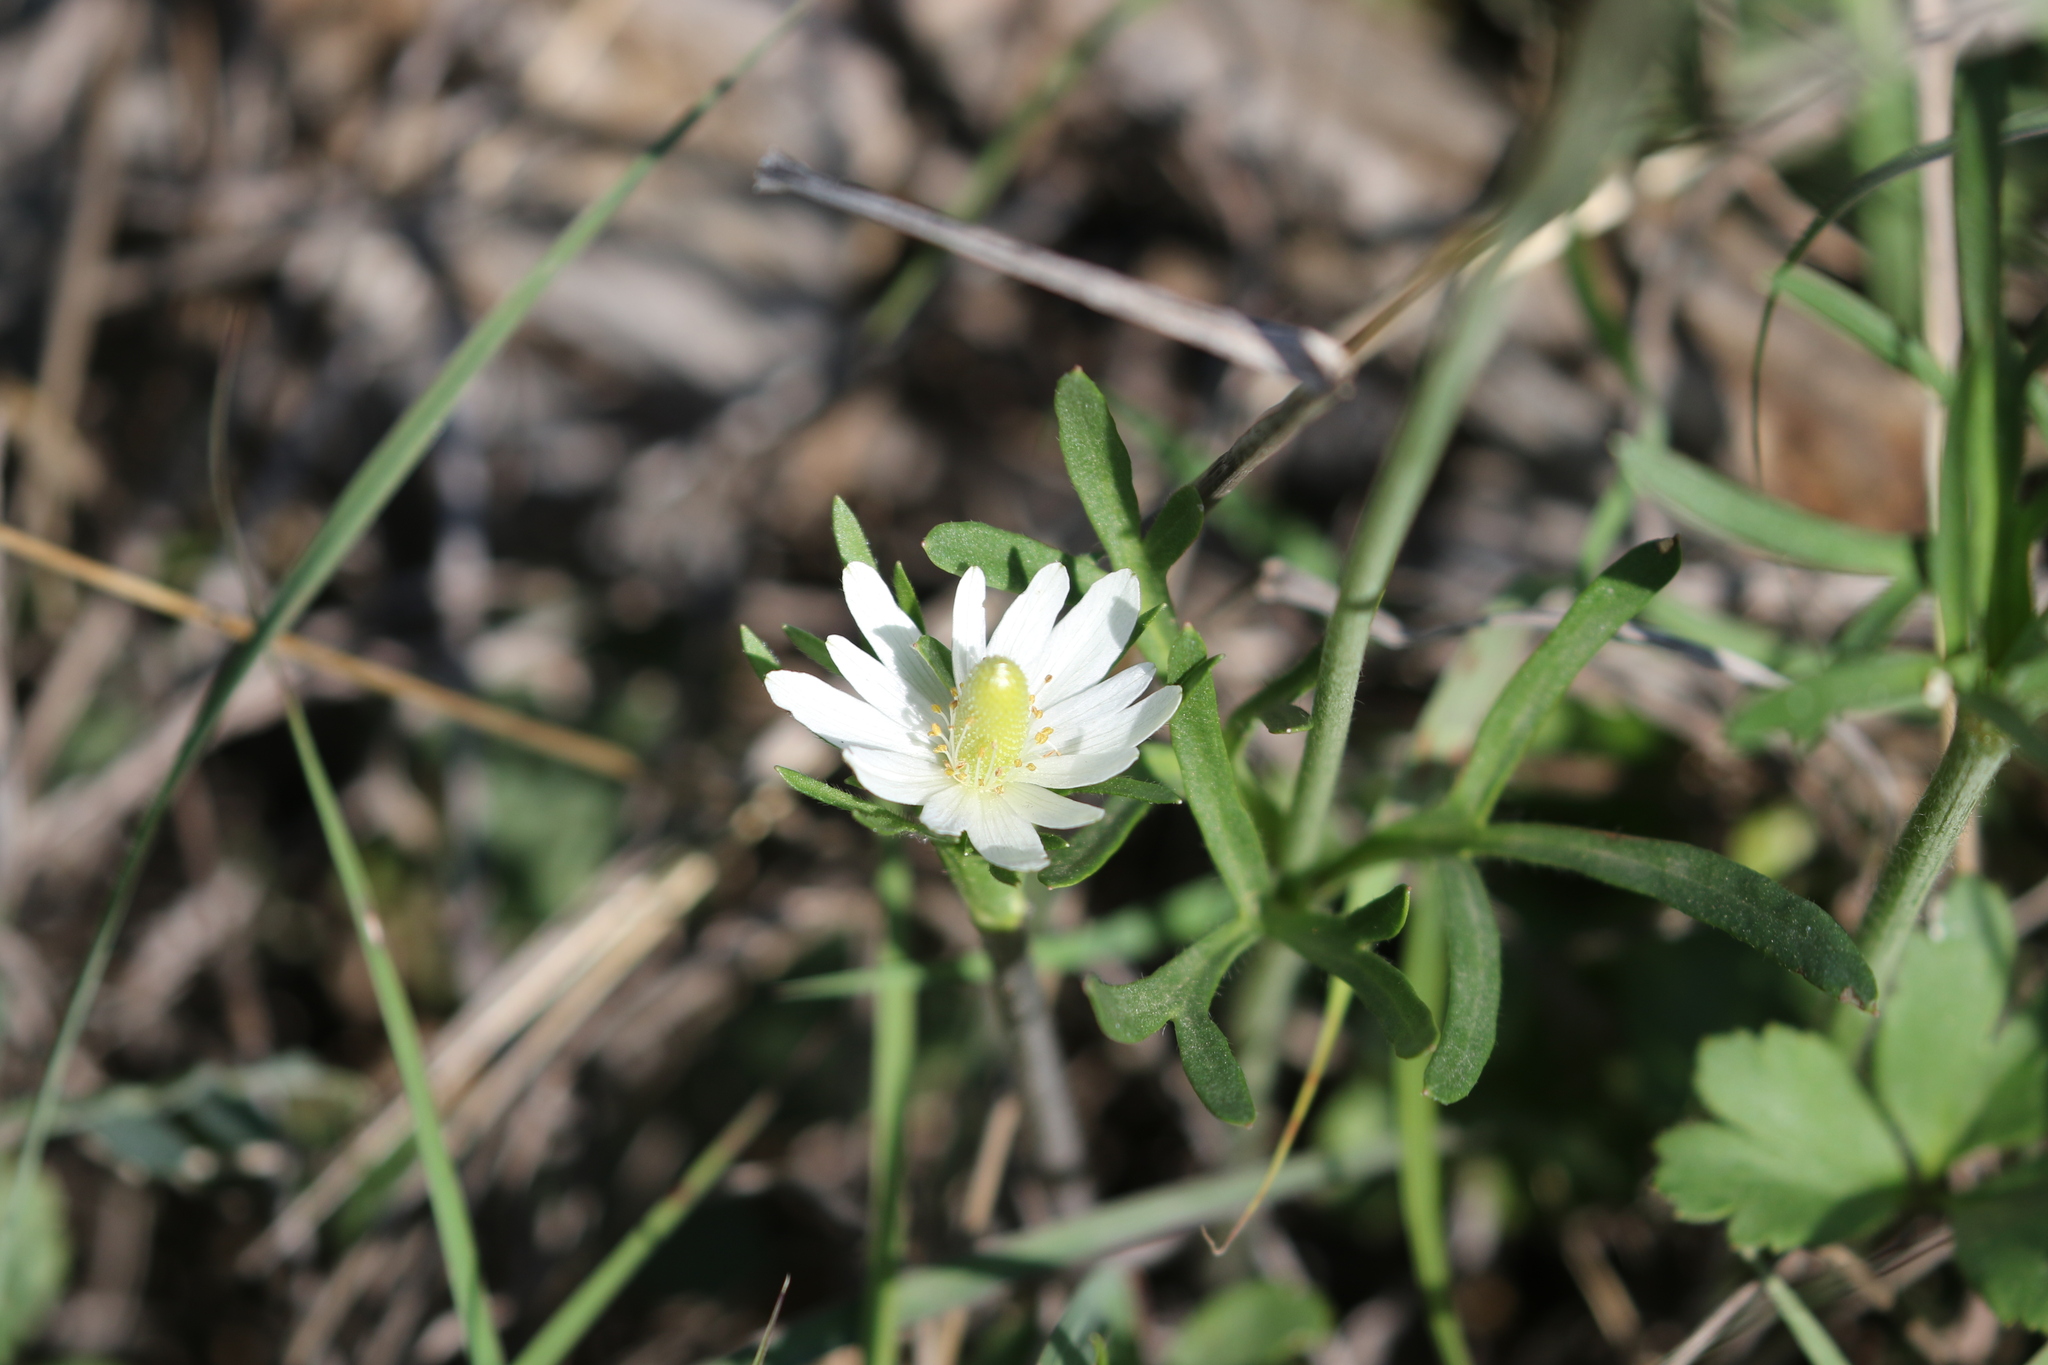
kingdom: Plantae
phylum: Tracheophyta
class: Magnoliopsida
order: Ranunculales
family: Ranunculaceae
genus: Anemone
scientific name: Anemone berlandieri
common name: Ten-petal anemone
